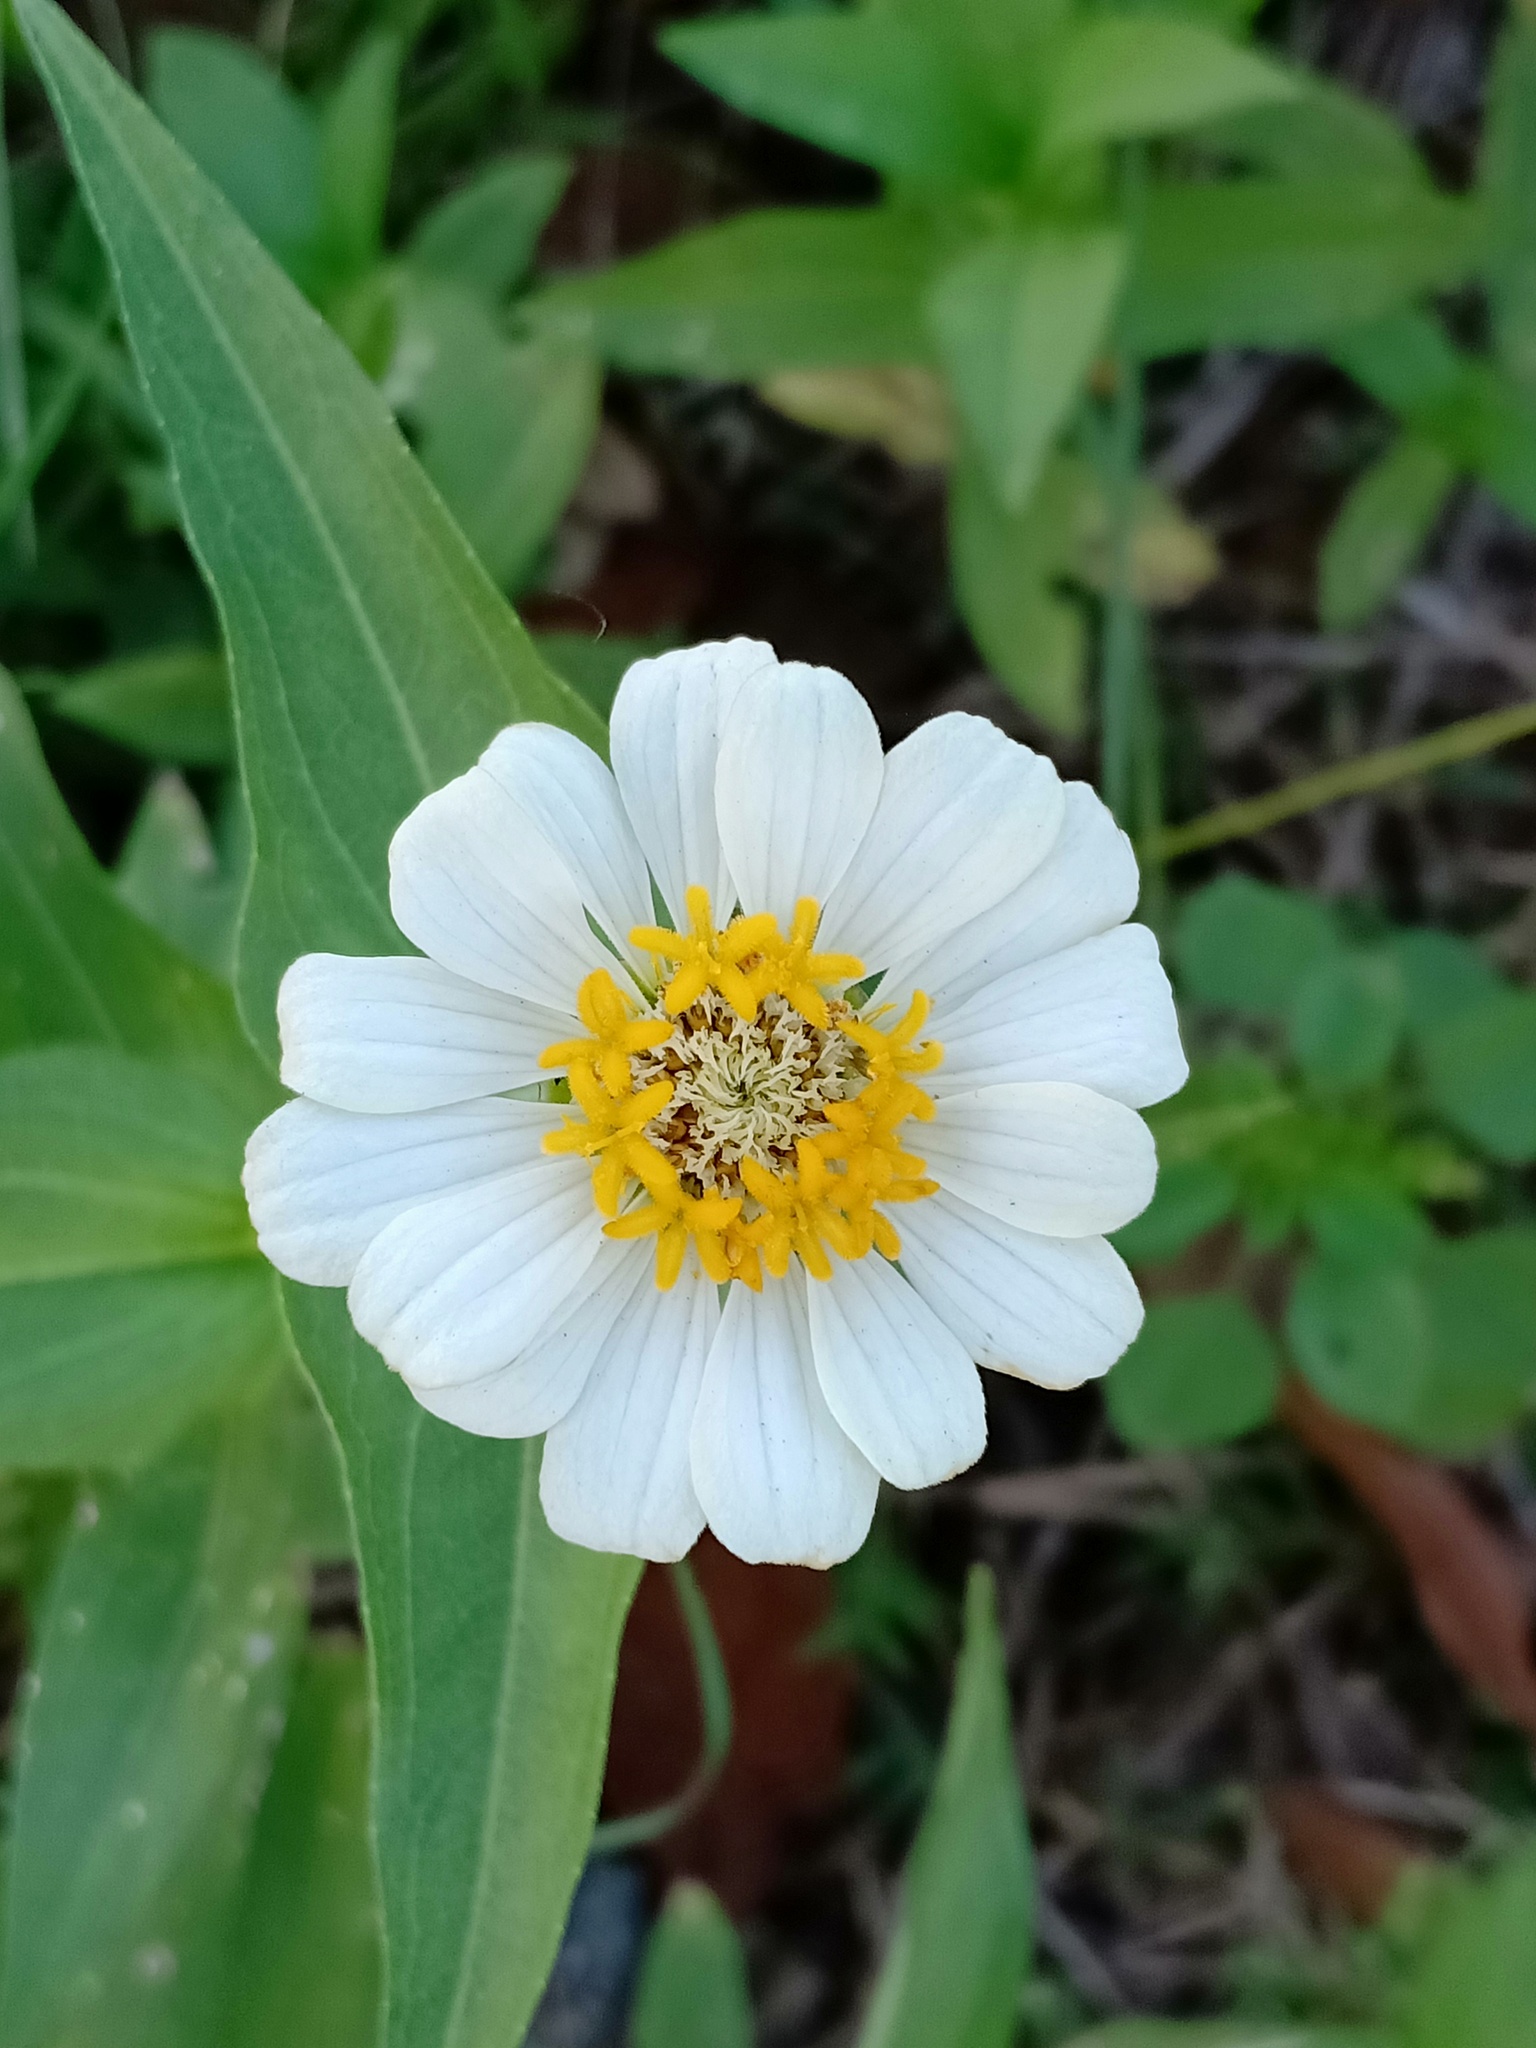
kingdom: Plantae
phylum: Tracheophyta
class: Magnoliopsida
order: Asterales
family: Asteraceae
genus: Zinnia
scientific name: Zinnia elegans
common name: Youth-and-age
